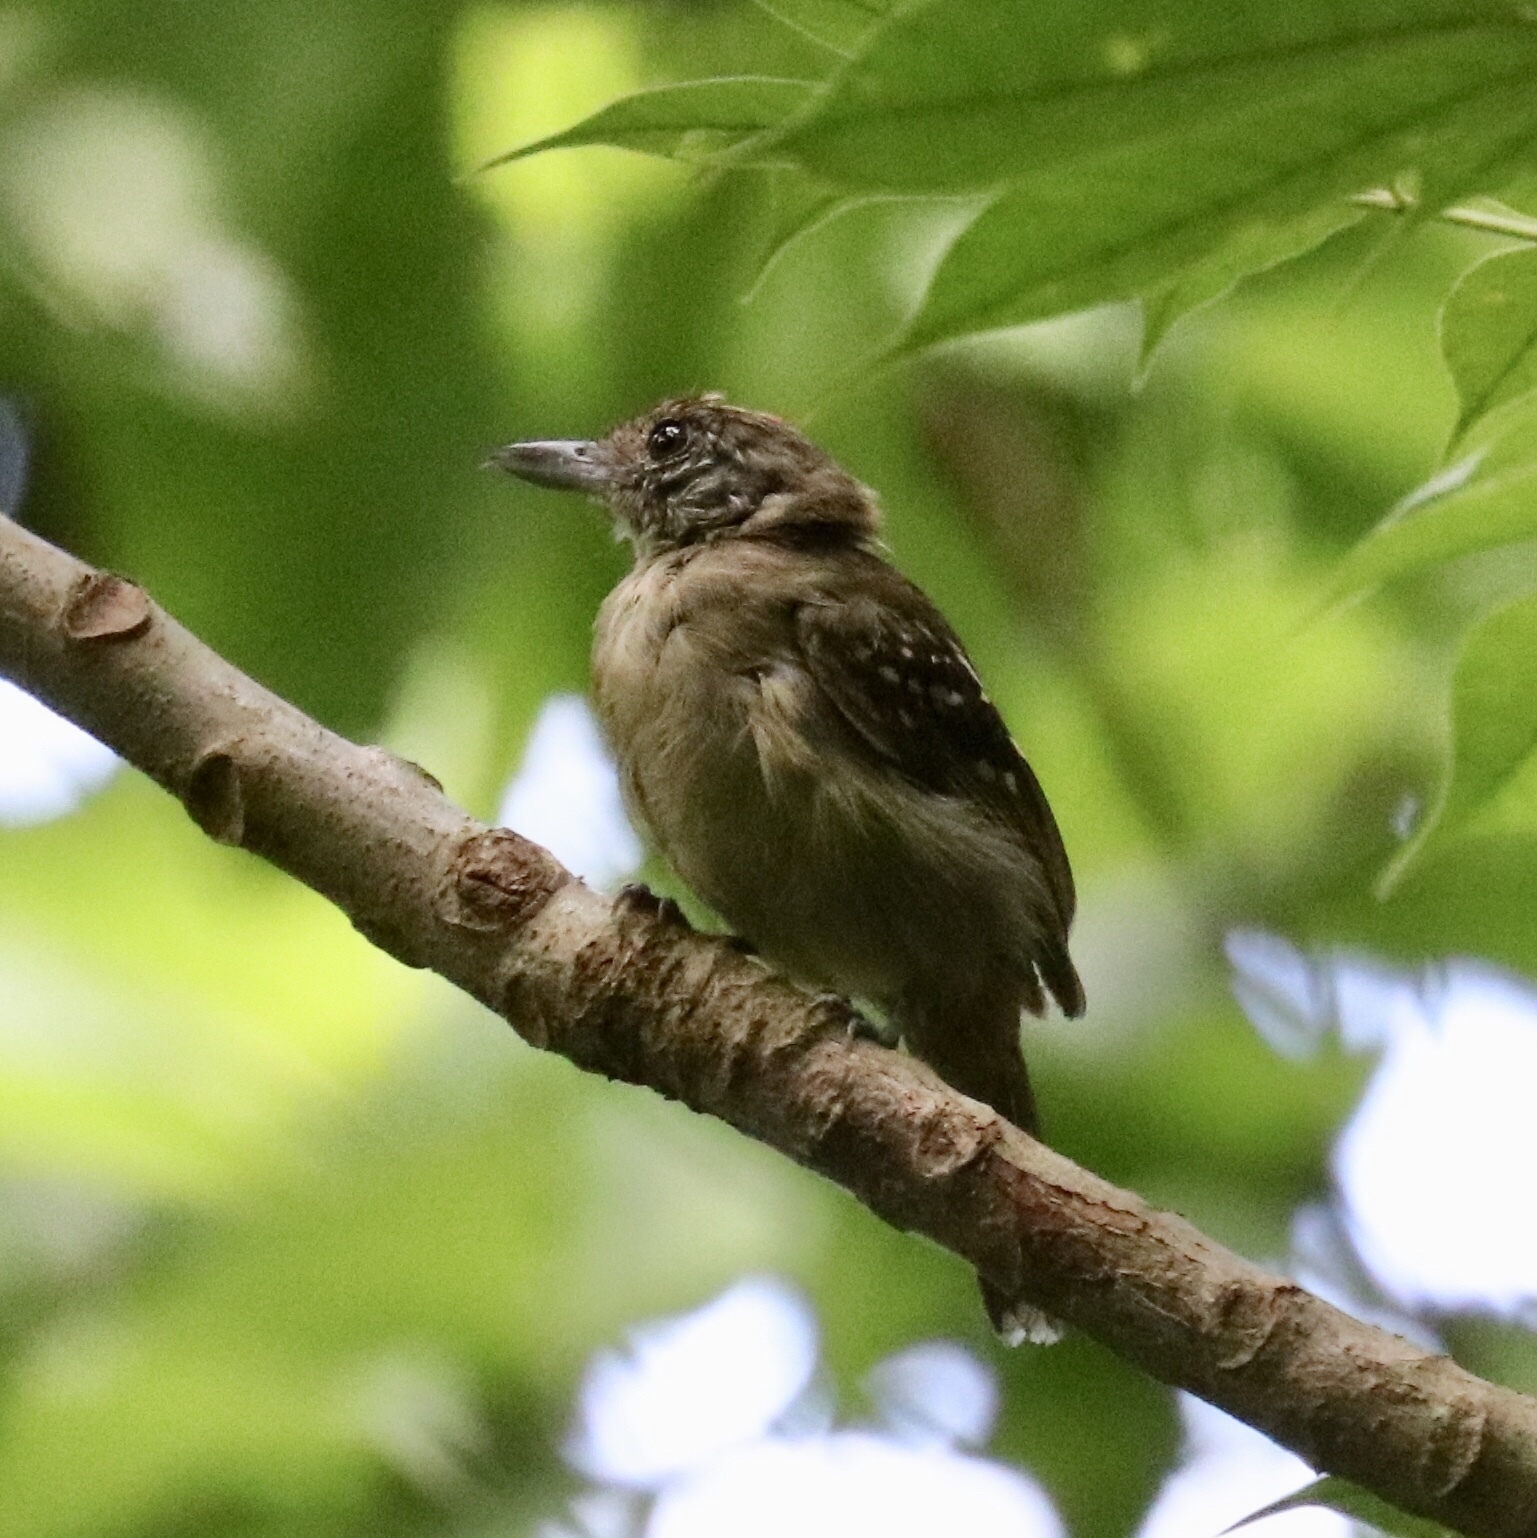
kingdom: Animalia
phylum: Chordata
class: Aves
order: Passeriformes
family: Thamnophilidae
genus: Thamnophilus
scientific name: Thamnophilus atrinucha
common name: Black-crowned antshrike
